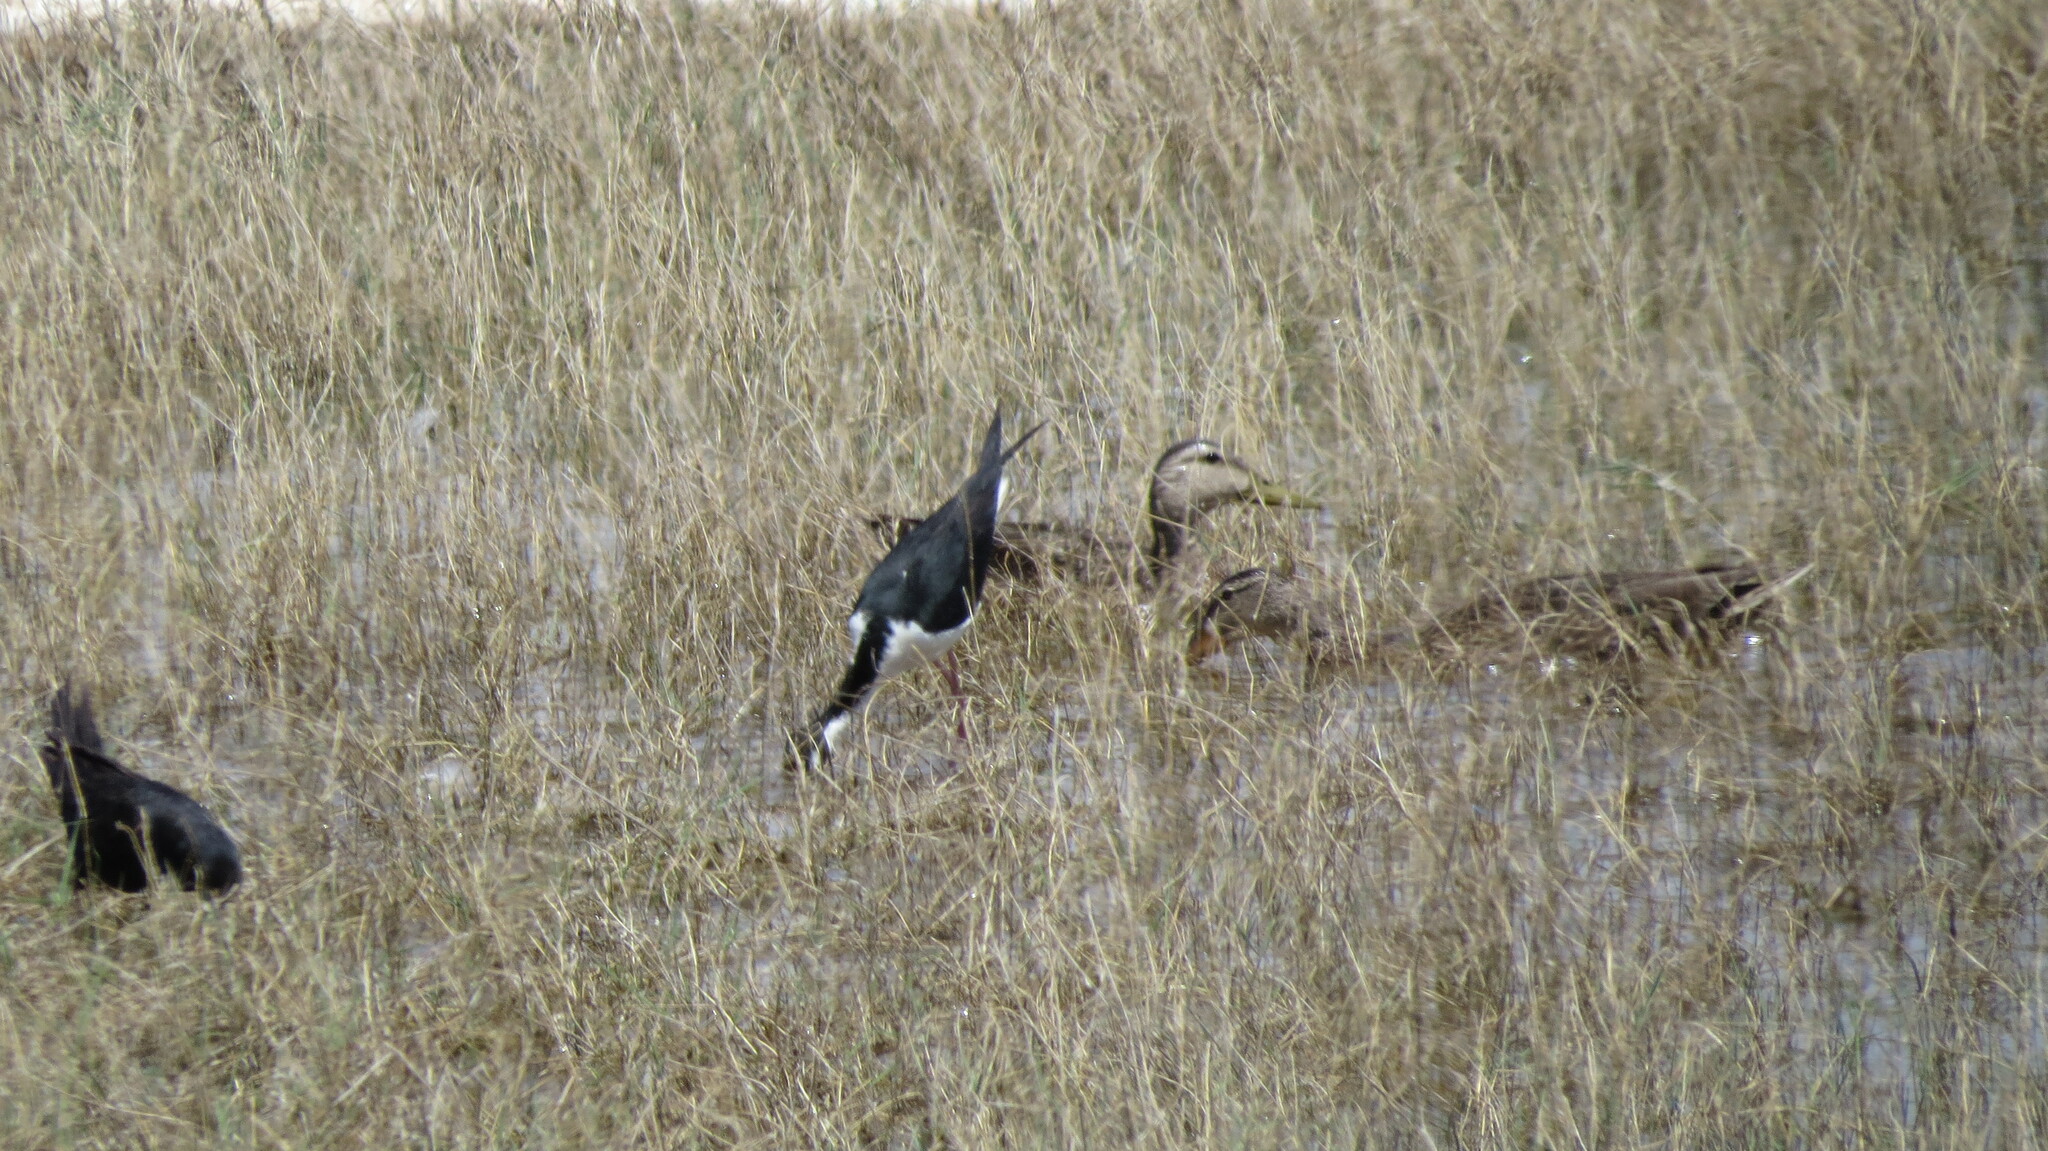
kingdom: Animalia
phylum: Chordata
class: Aves
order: Anseriformes
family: Anatidae
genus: Anas
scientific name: Anas diazi
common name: Mexican duck
